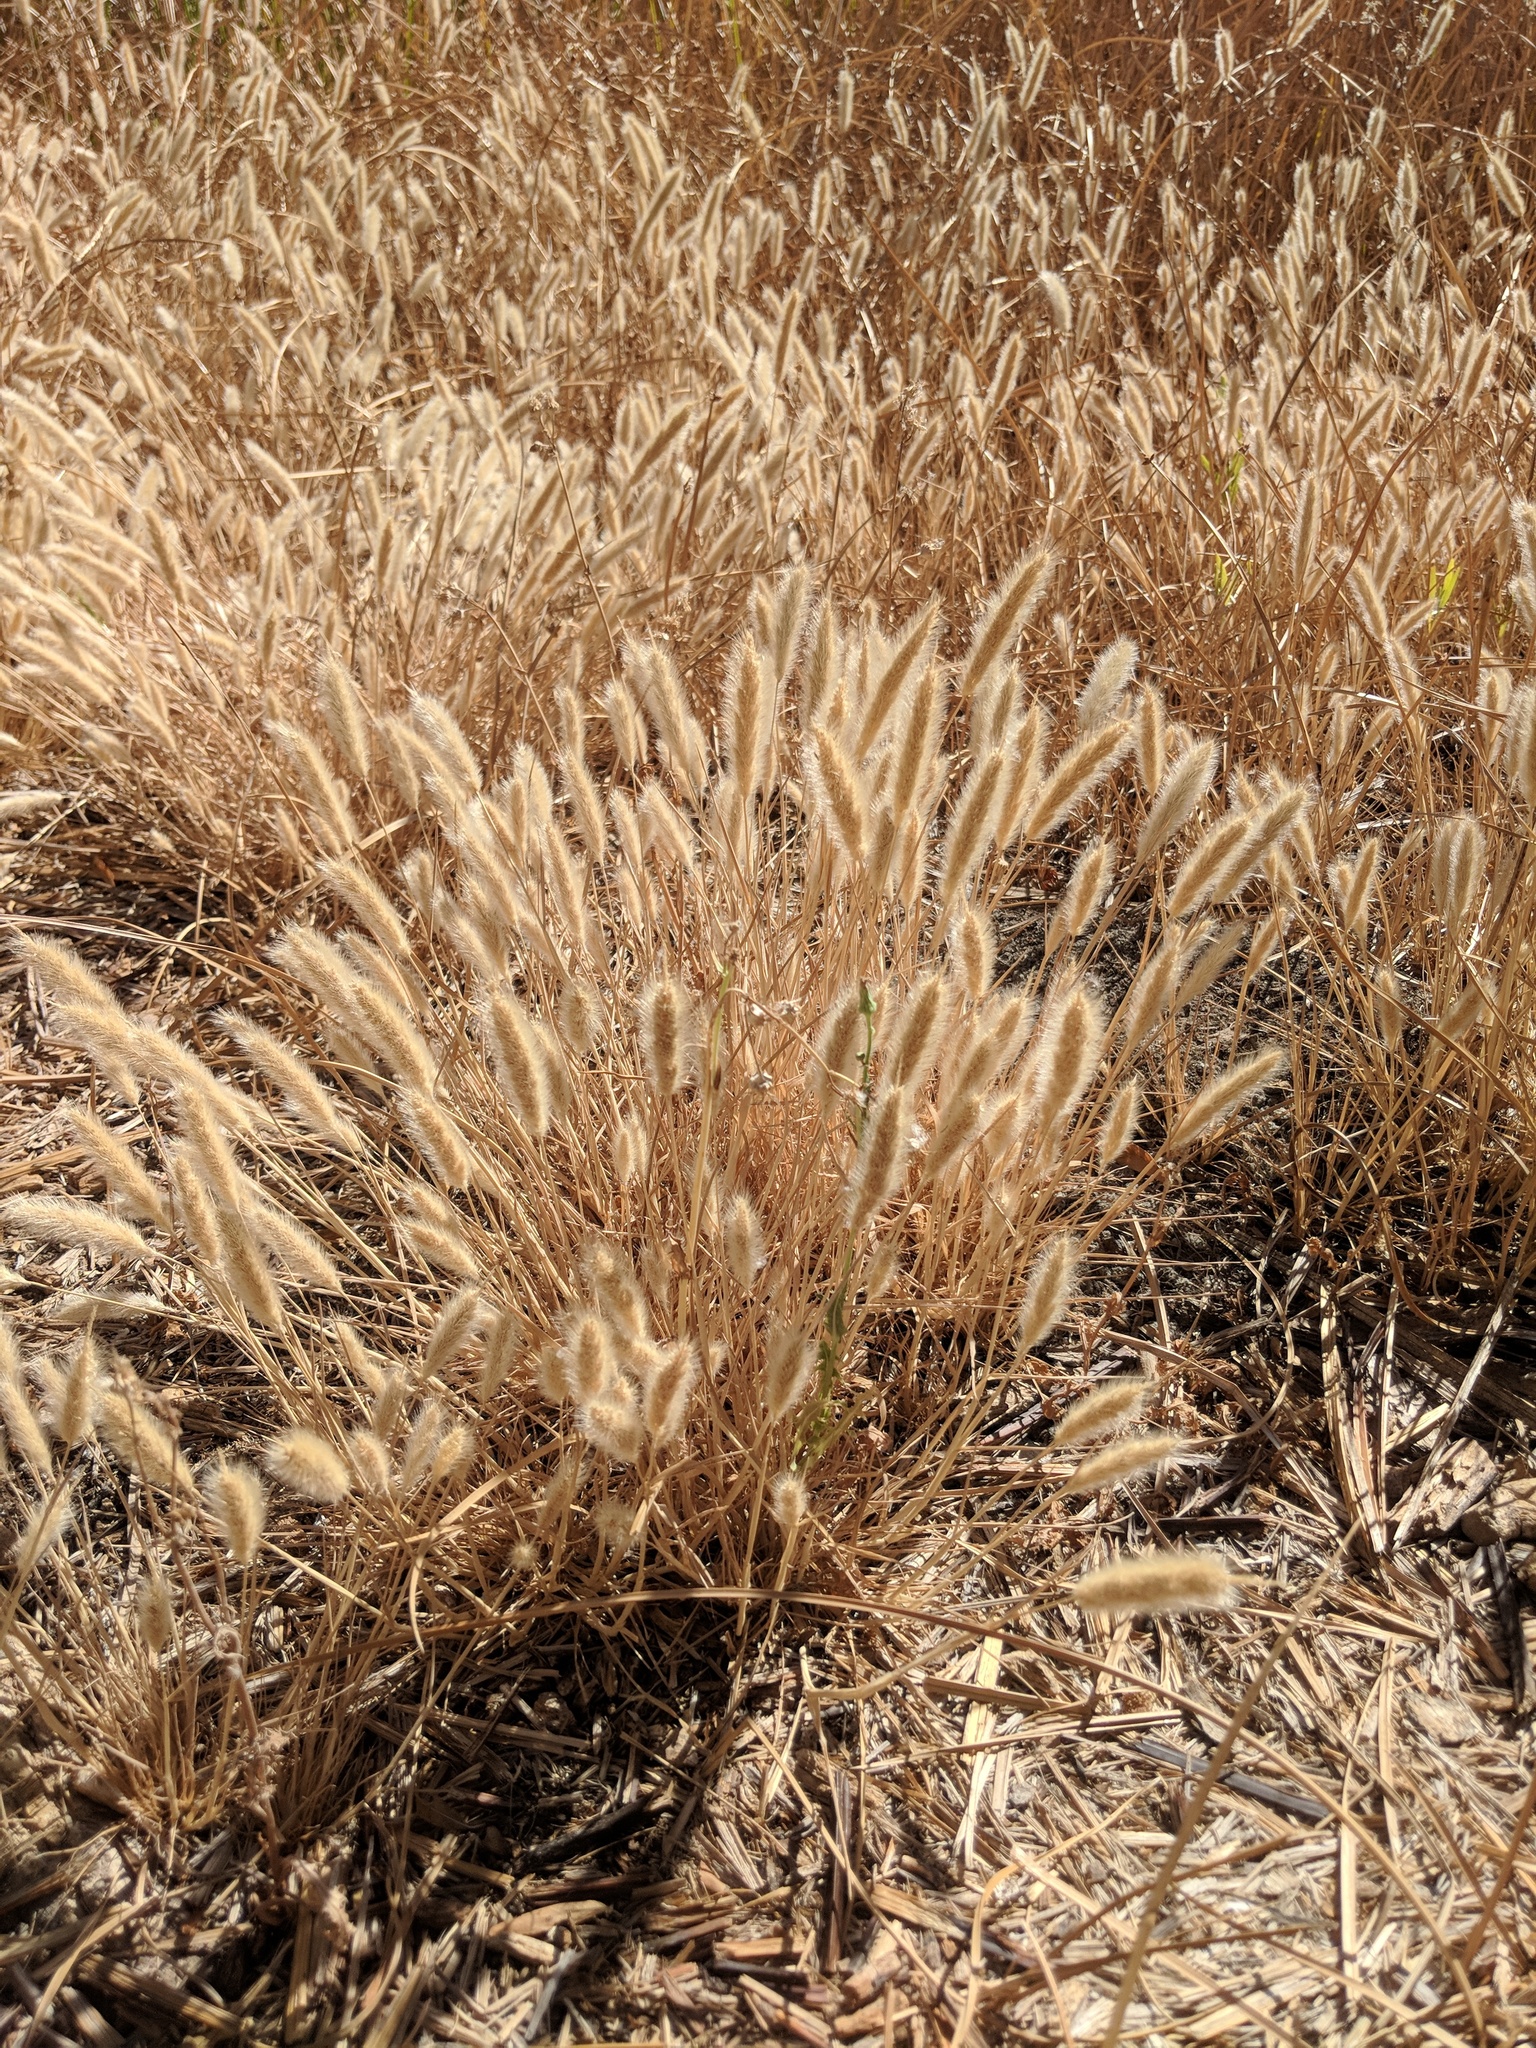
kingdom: Plantae
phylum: Tracheophyta
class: Liliopsida
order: Poales
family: Poaceae
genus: Polypogon
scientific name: Polypogon monspeliensis
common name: Annual rabbitsfoot grass
